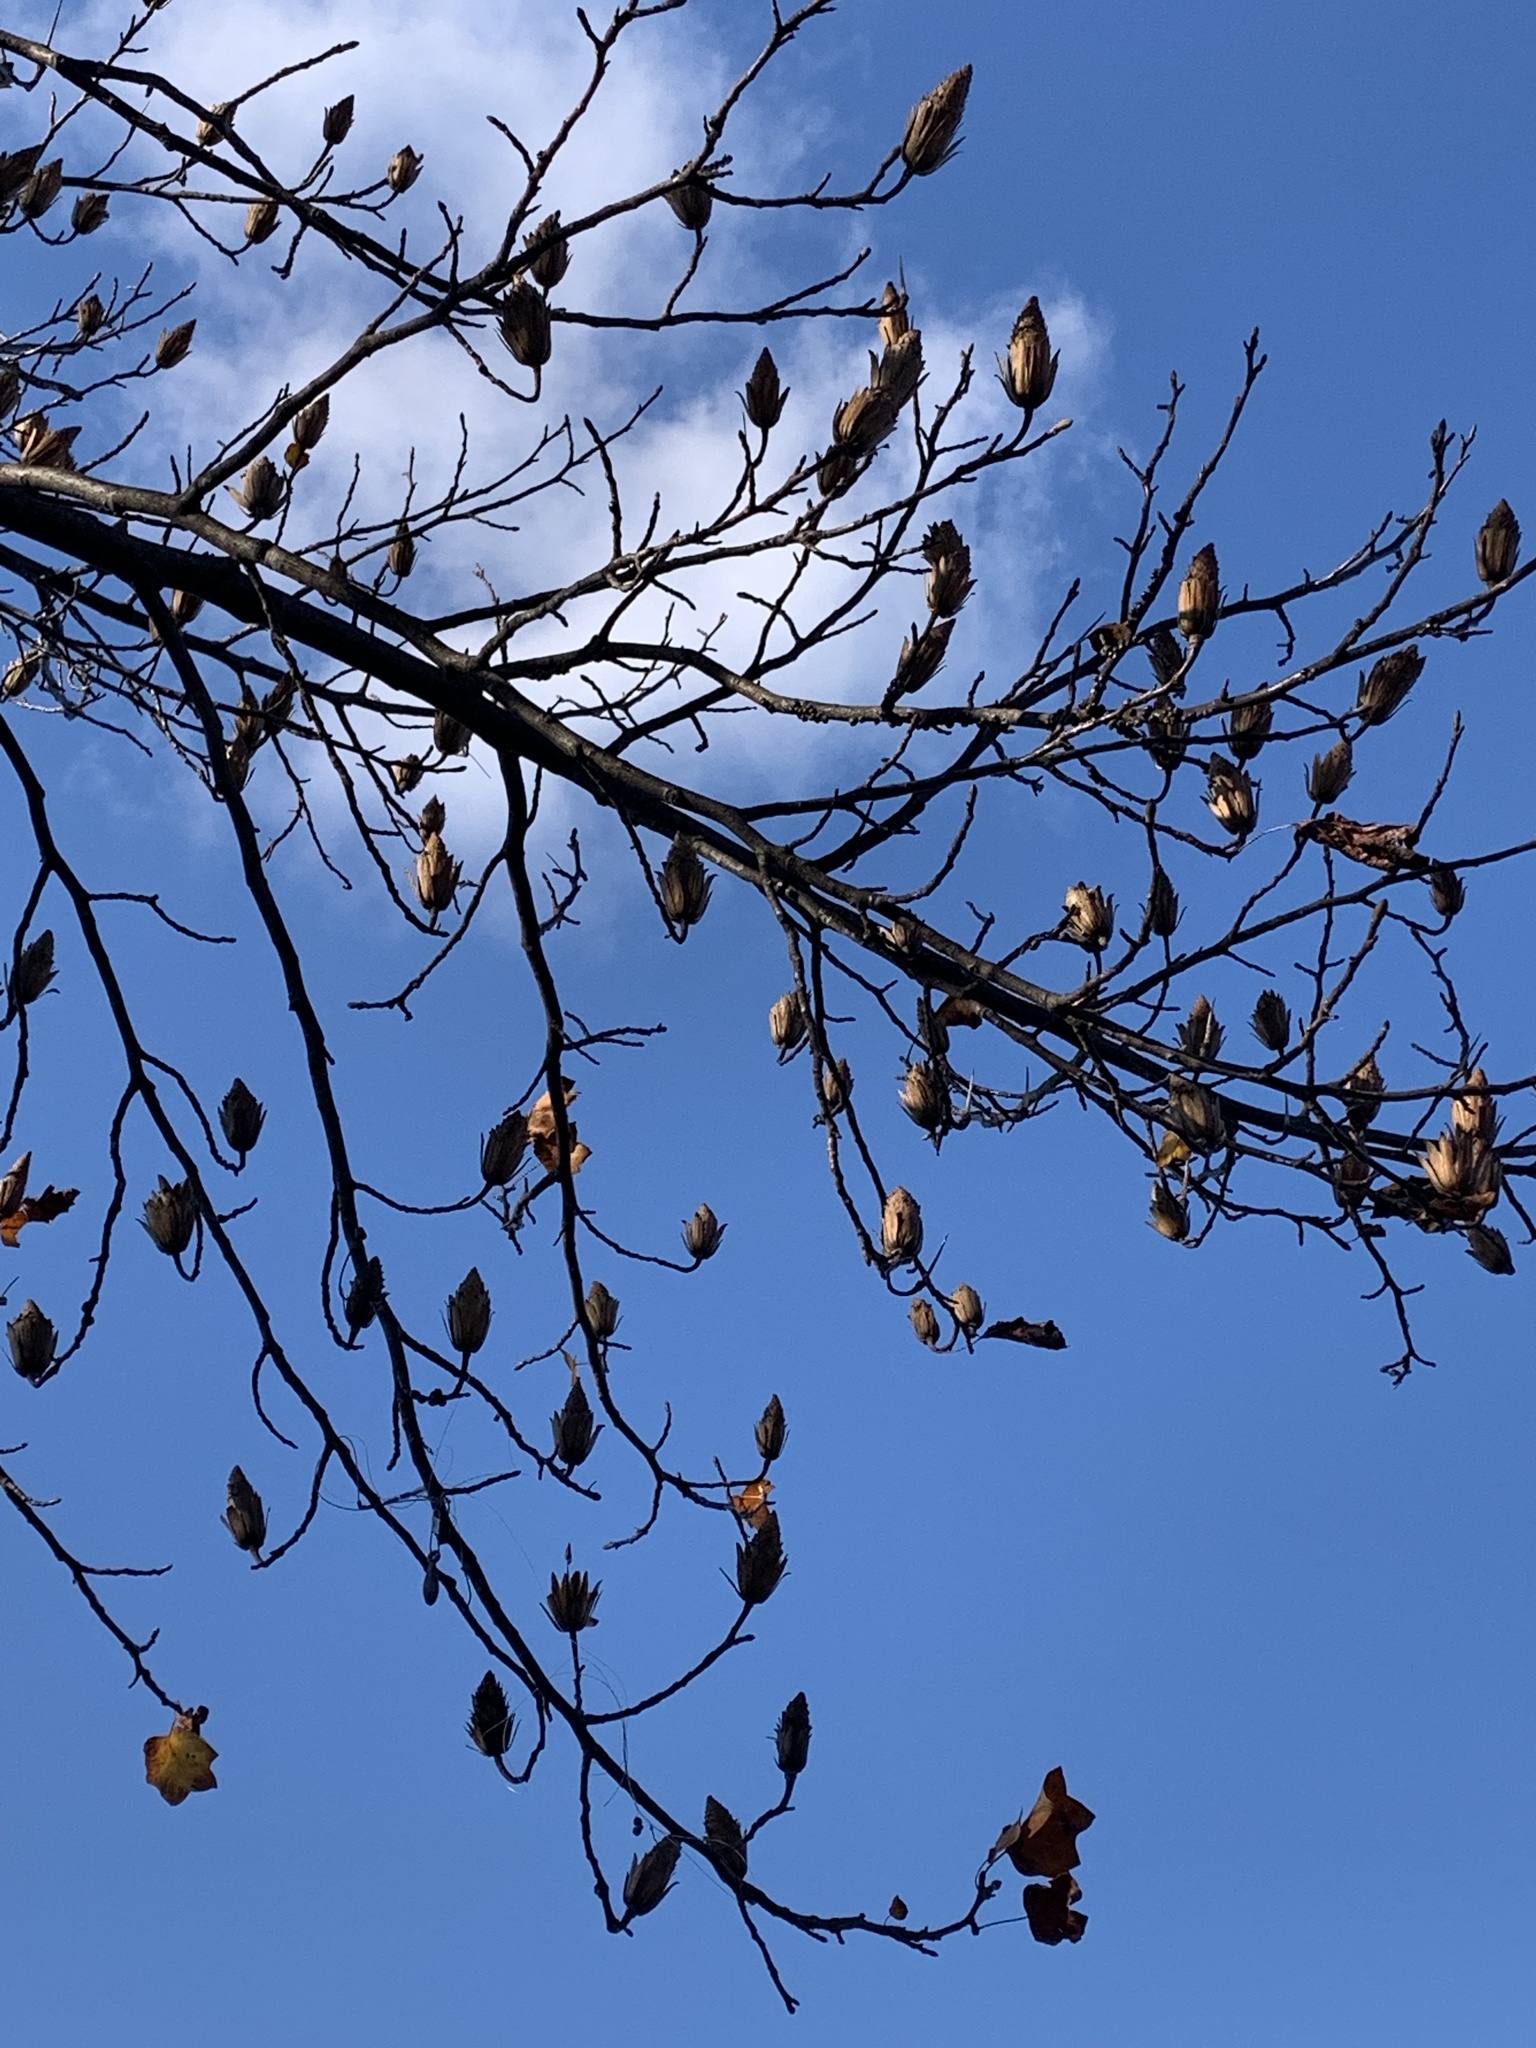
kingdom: Plantae
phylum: Tracheophyta
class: Magnoliopsida
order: Magnoliales
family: Magnoliaceae
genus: Liriodendron
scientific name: Liriodendron tulipifera
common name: Tulip tree
